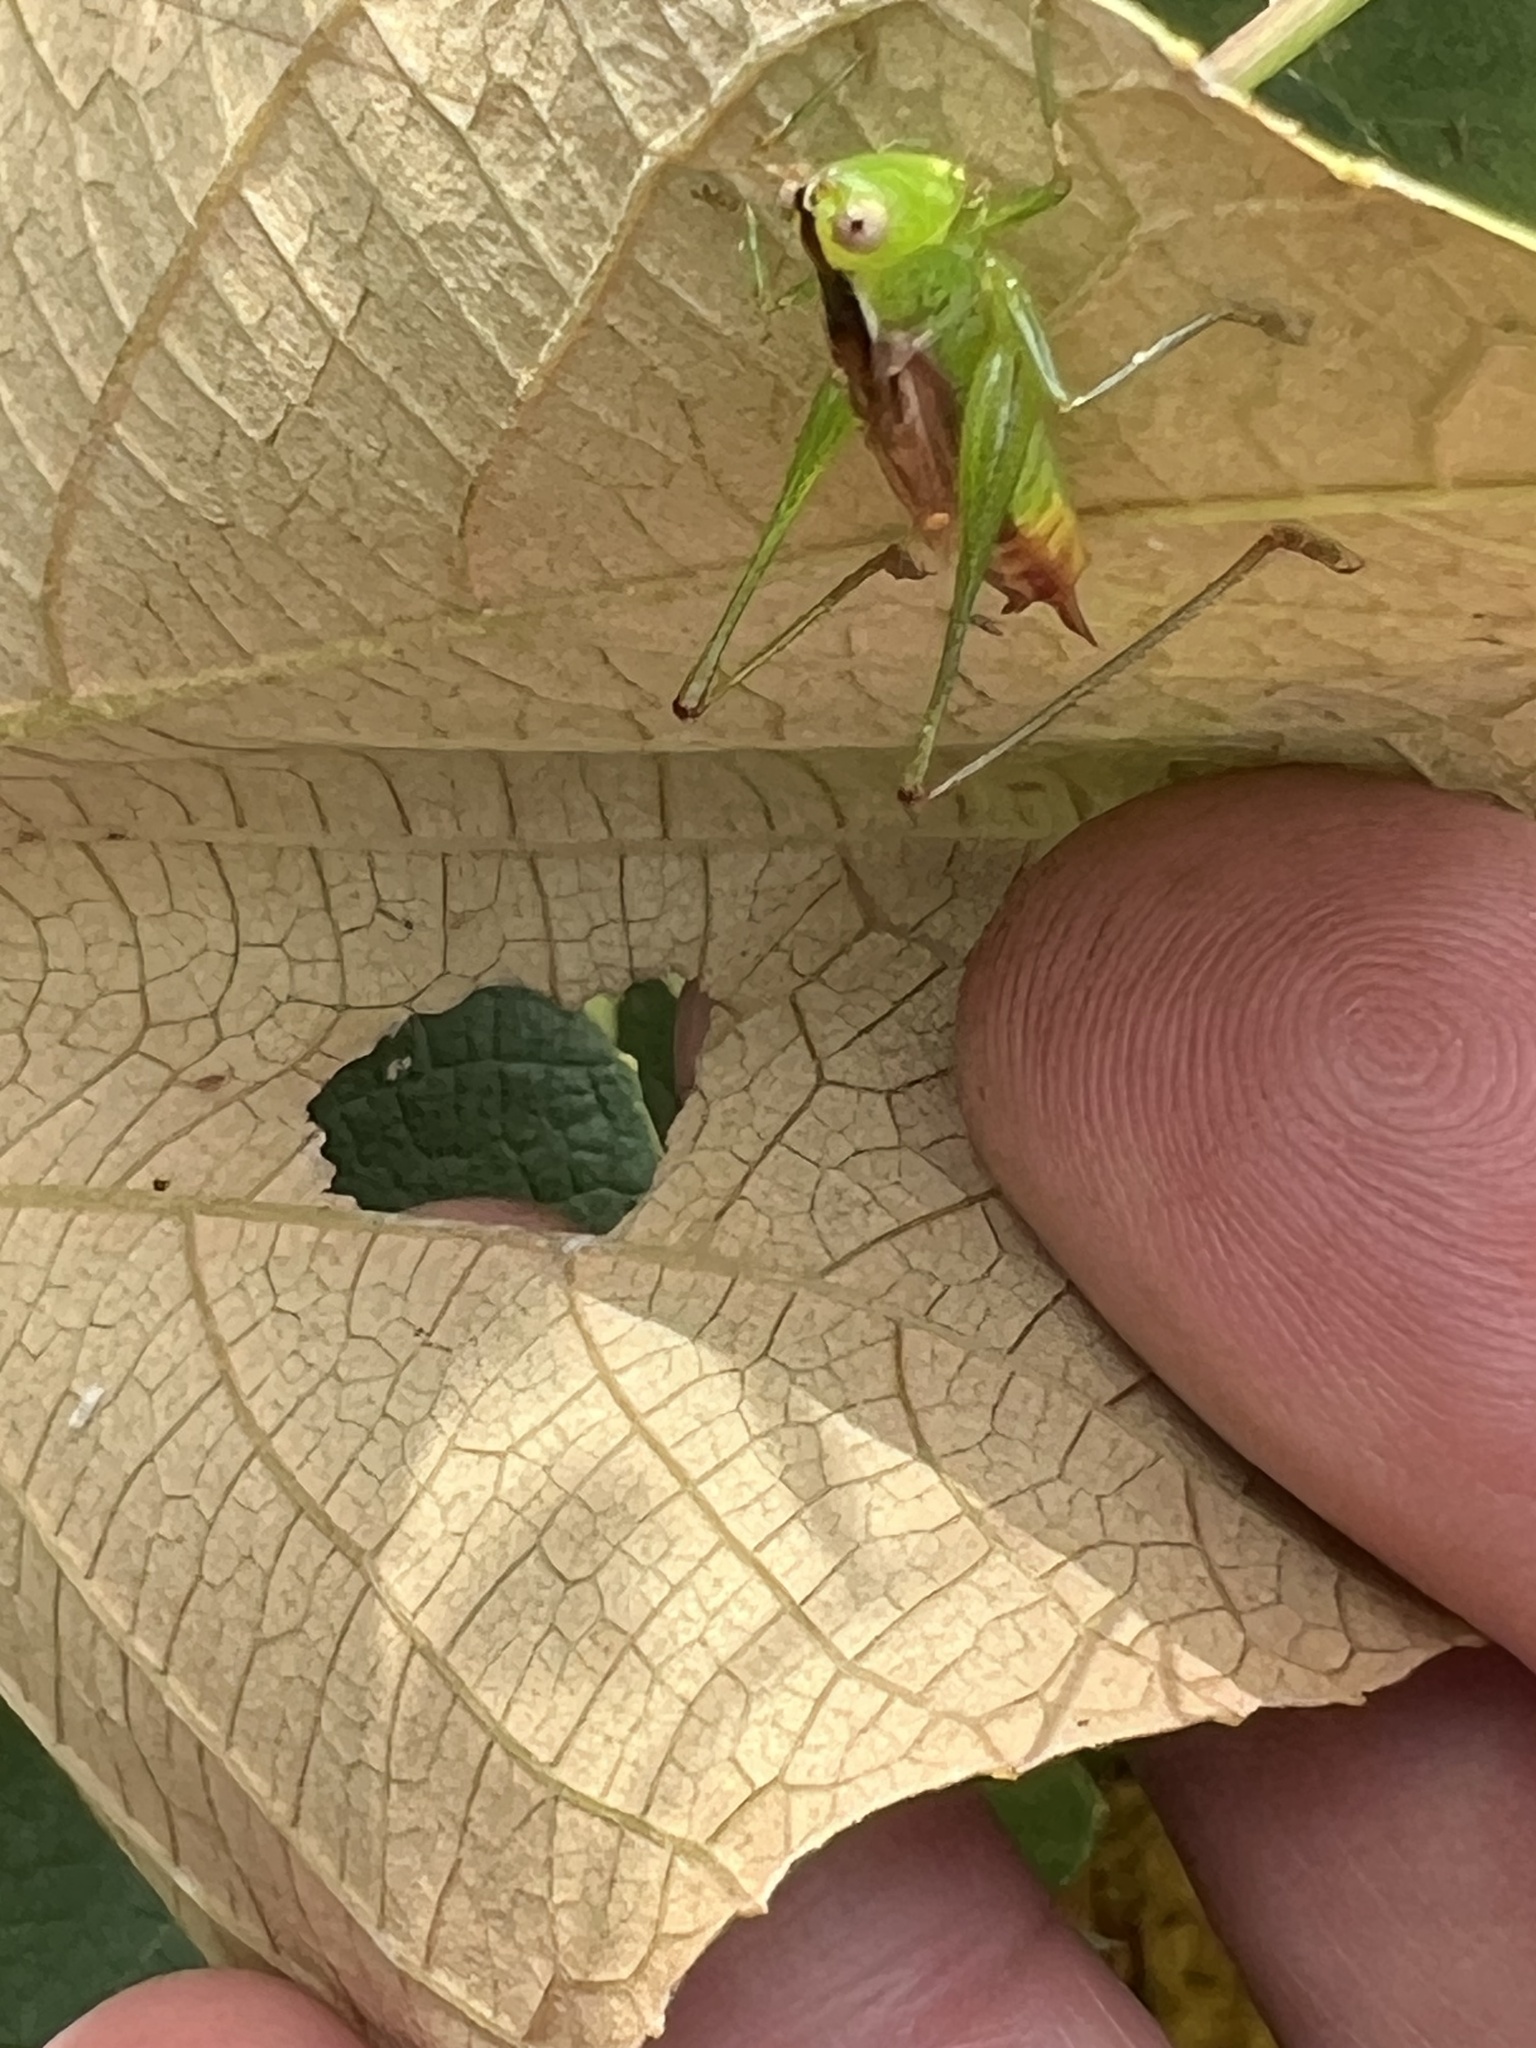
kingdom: Animalia
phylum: Arthropoda
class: Insecta
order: Orthoptera
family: Tettigoniidae
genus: Conocephalus
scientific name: Conocephalus brevipennis
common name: Short-winged meadow katydid
